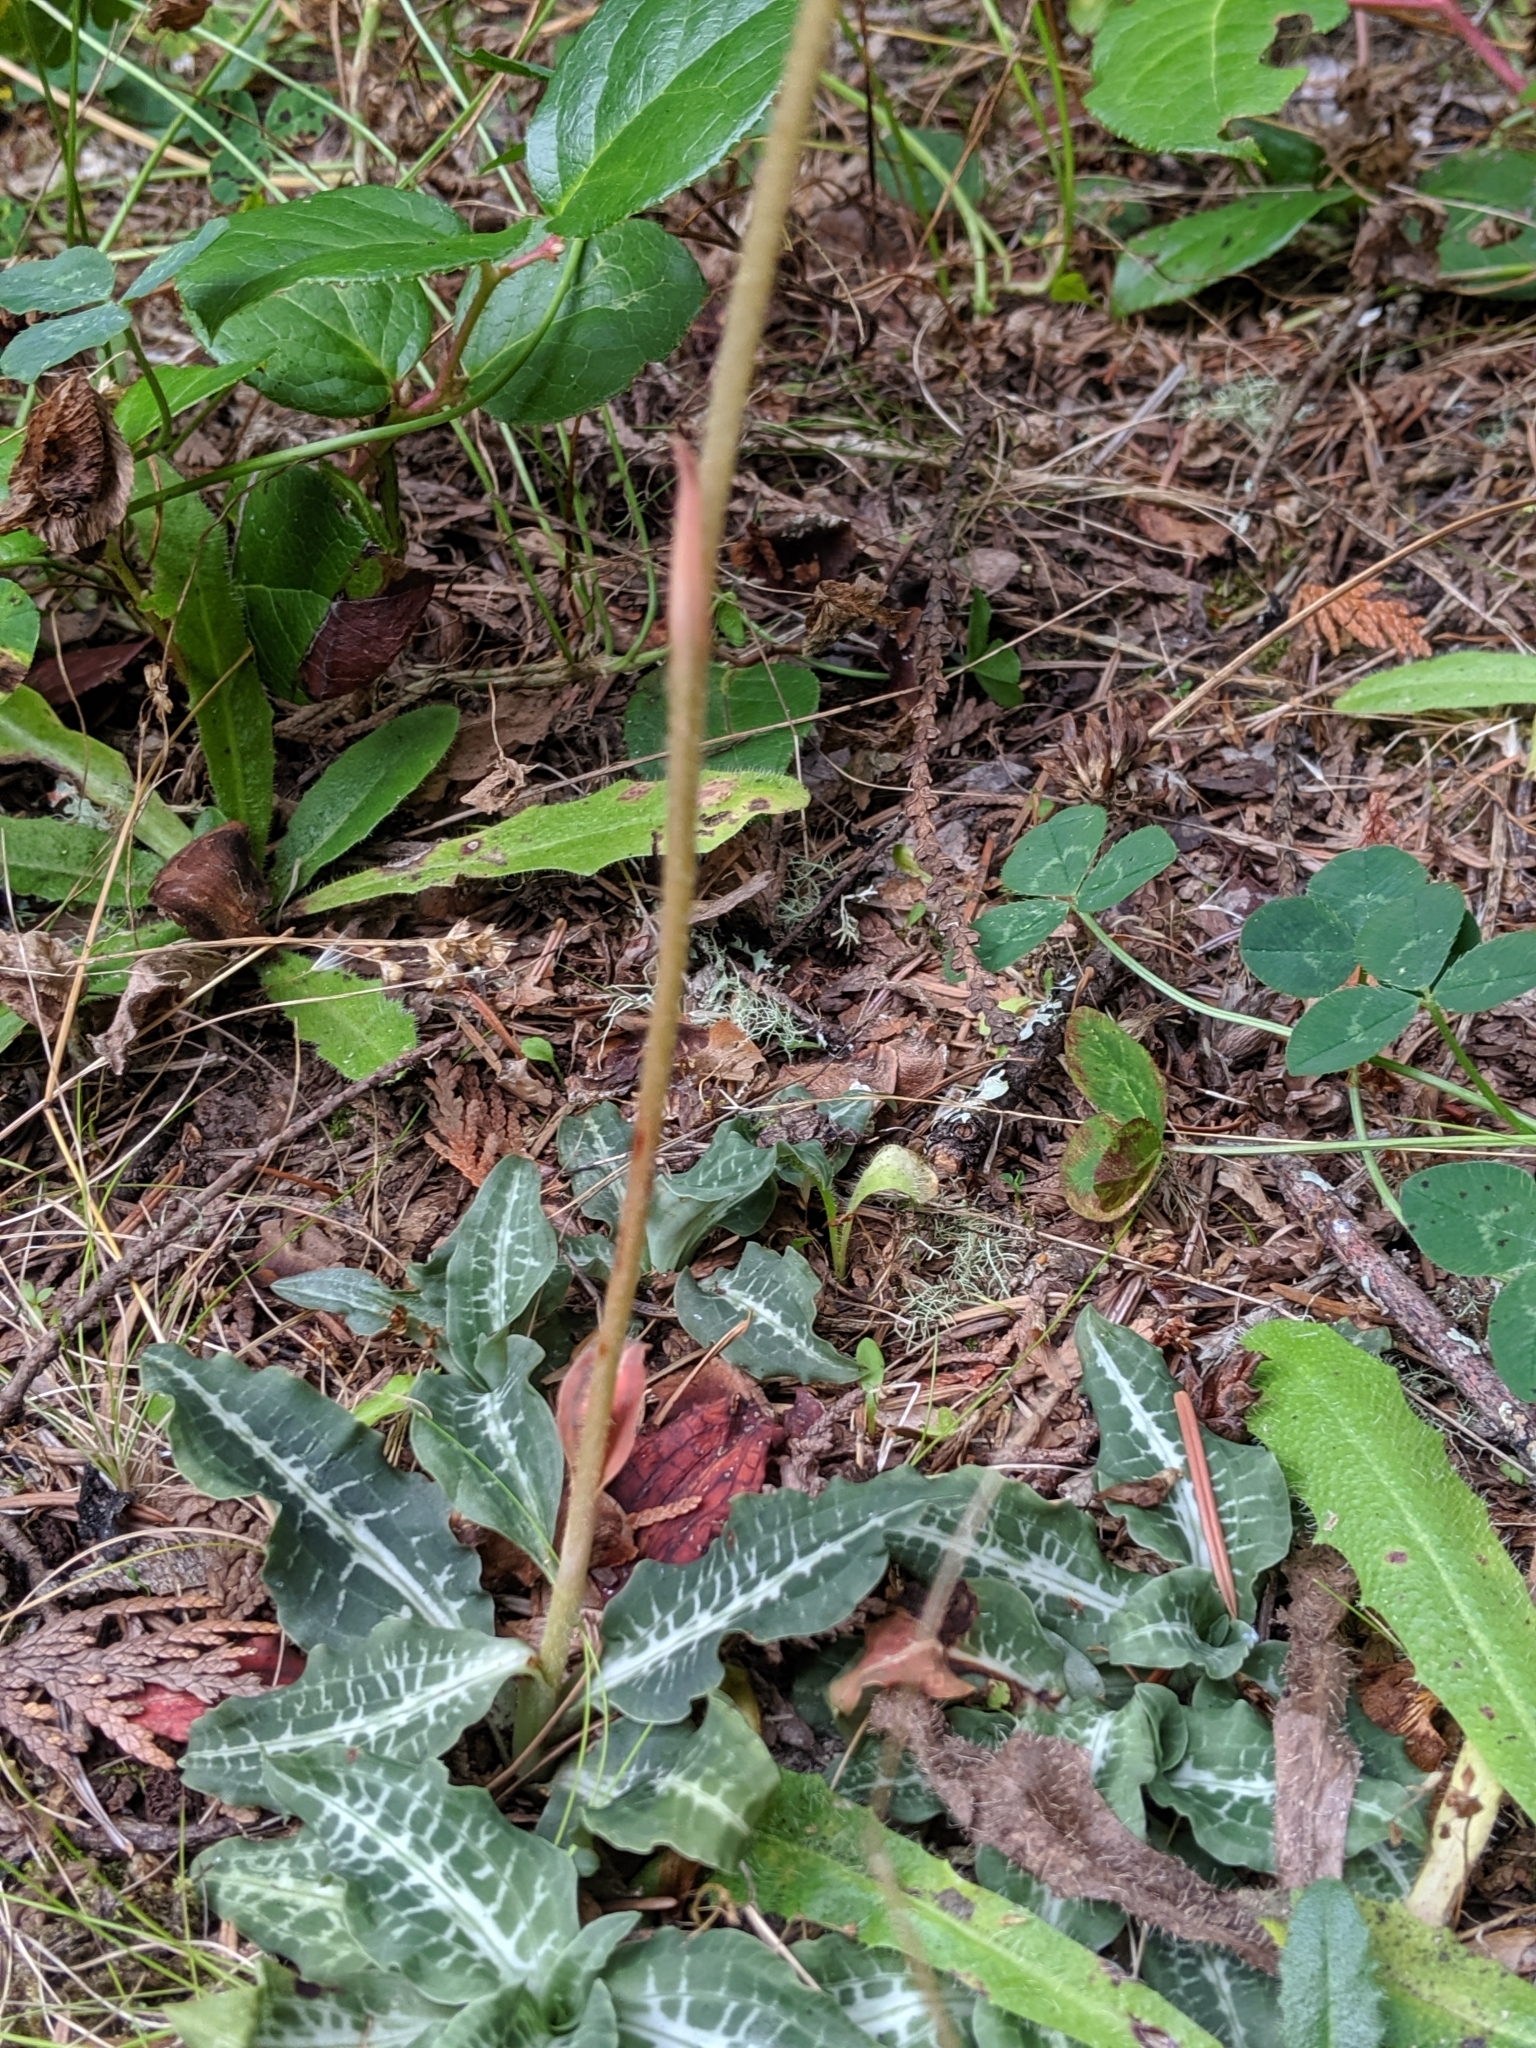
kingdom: Plantae
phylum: Tracheophyta
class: Liliopsida
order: Asparagales
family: Orchidaceae
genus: Goodyera
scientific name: Goodyera oblongifolia
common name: Giant rattlesnake-plantain
